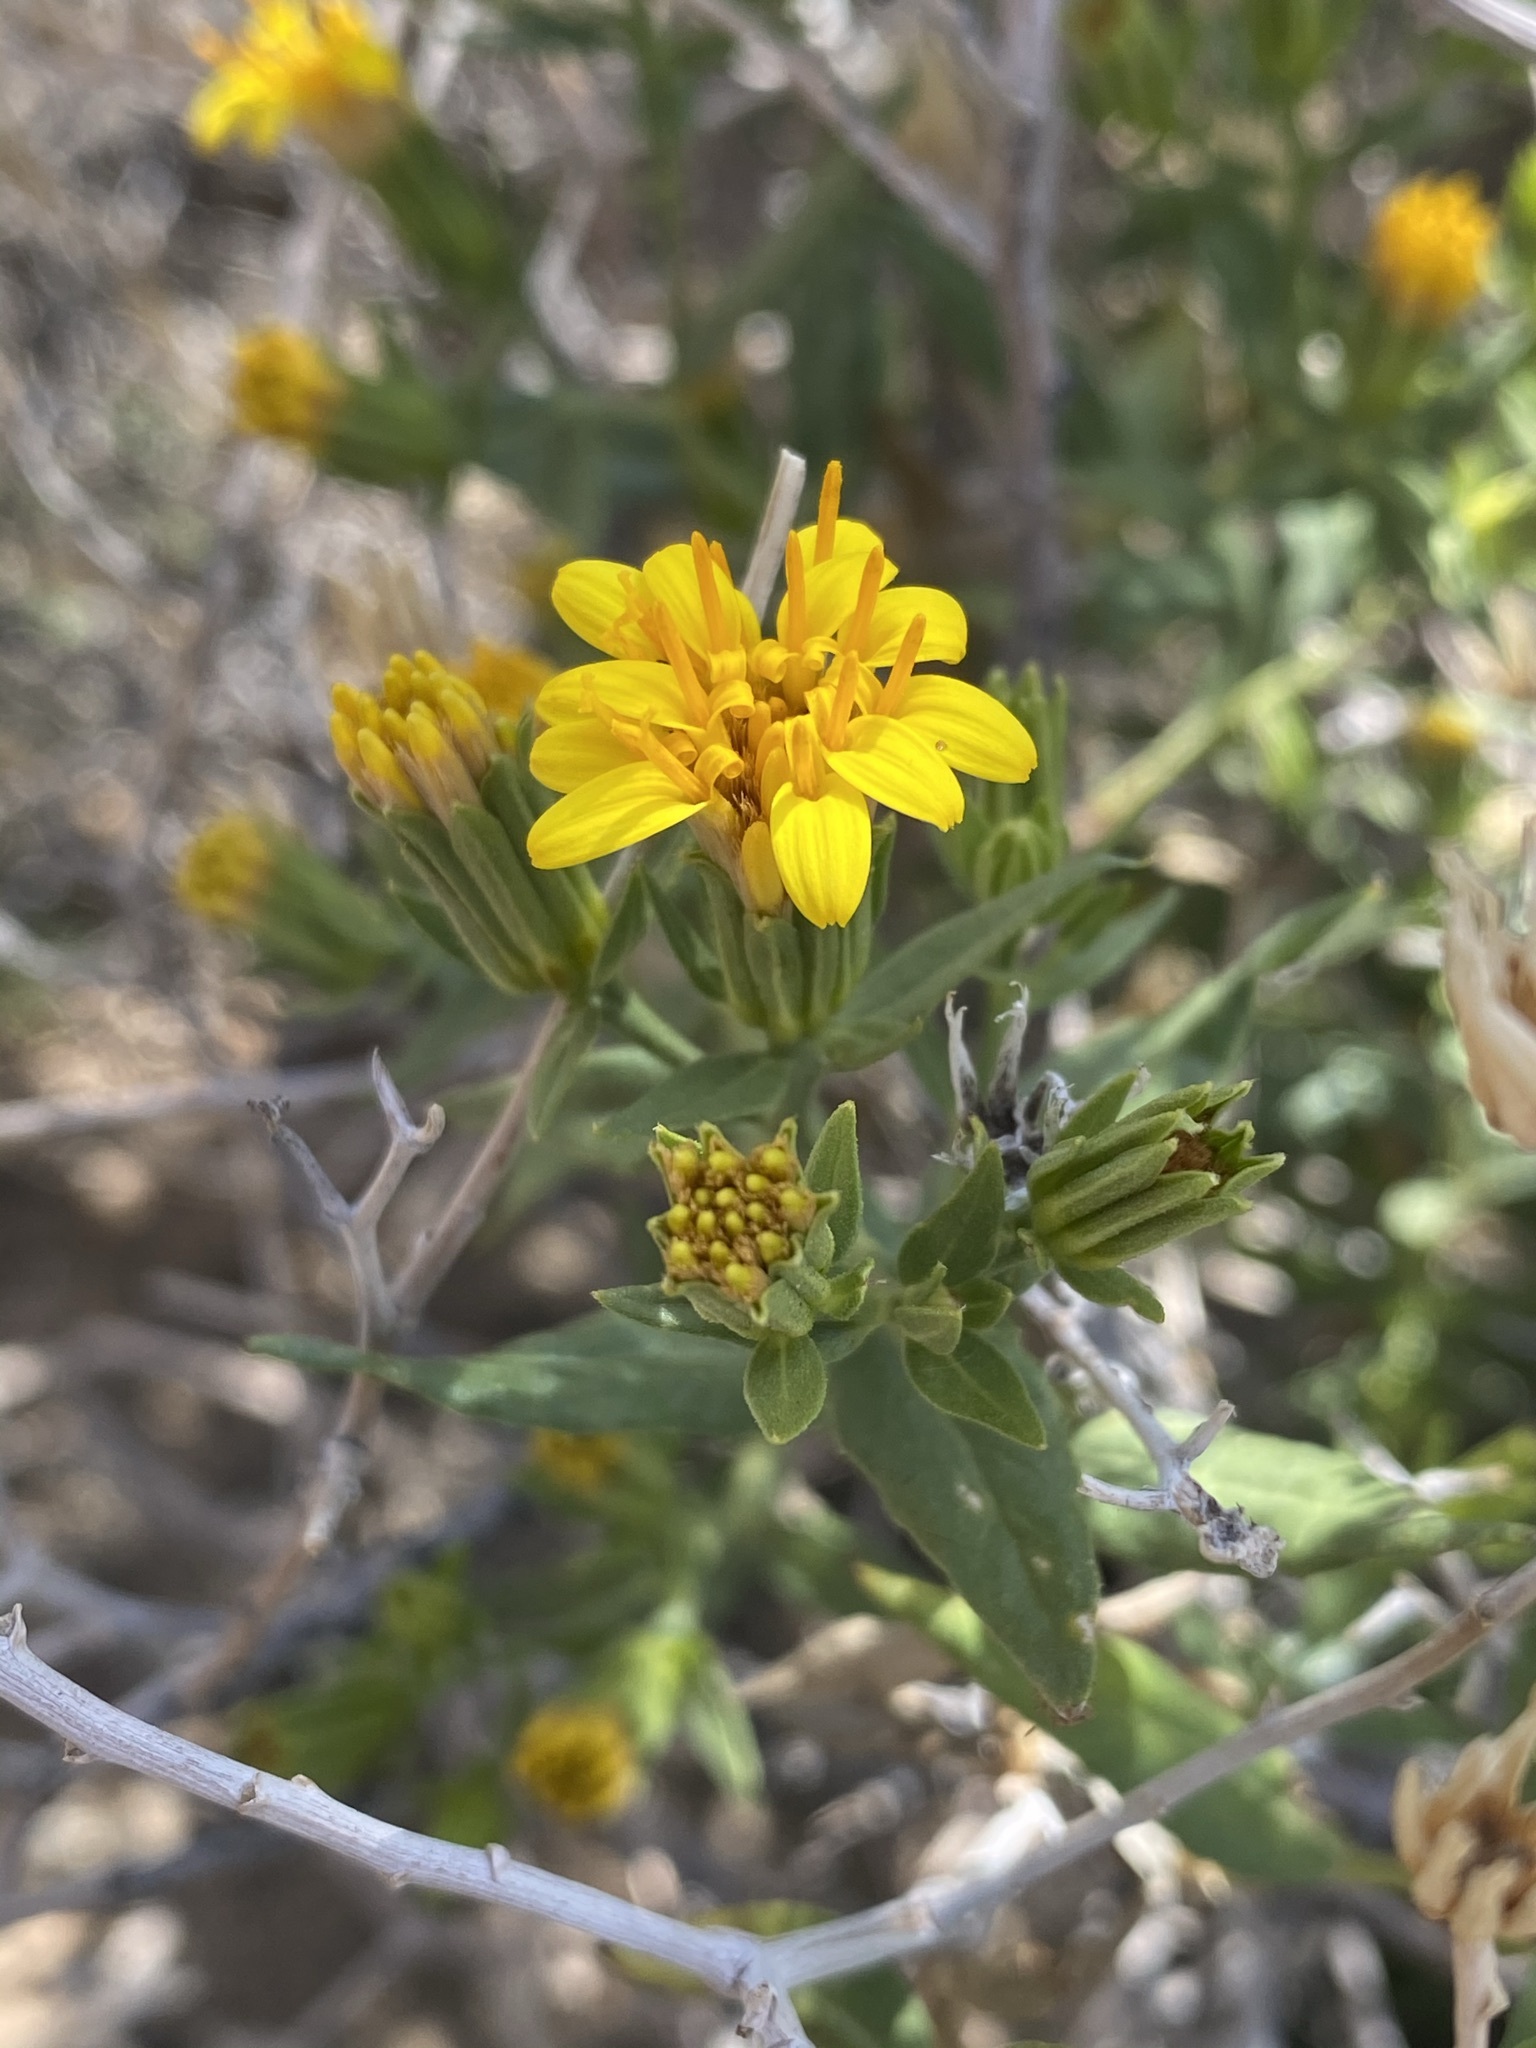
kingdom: Plantae
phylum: Tracheophyta
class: Magnoliopsida
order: Asterales
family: Asteraceae
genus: Trixis
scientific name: Trixis californica
